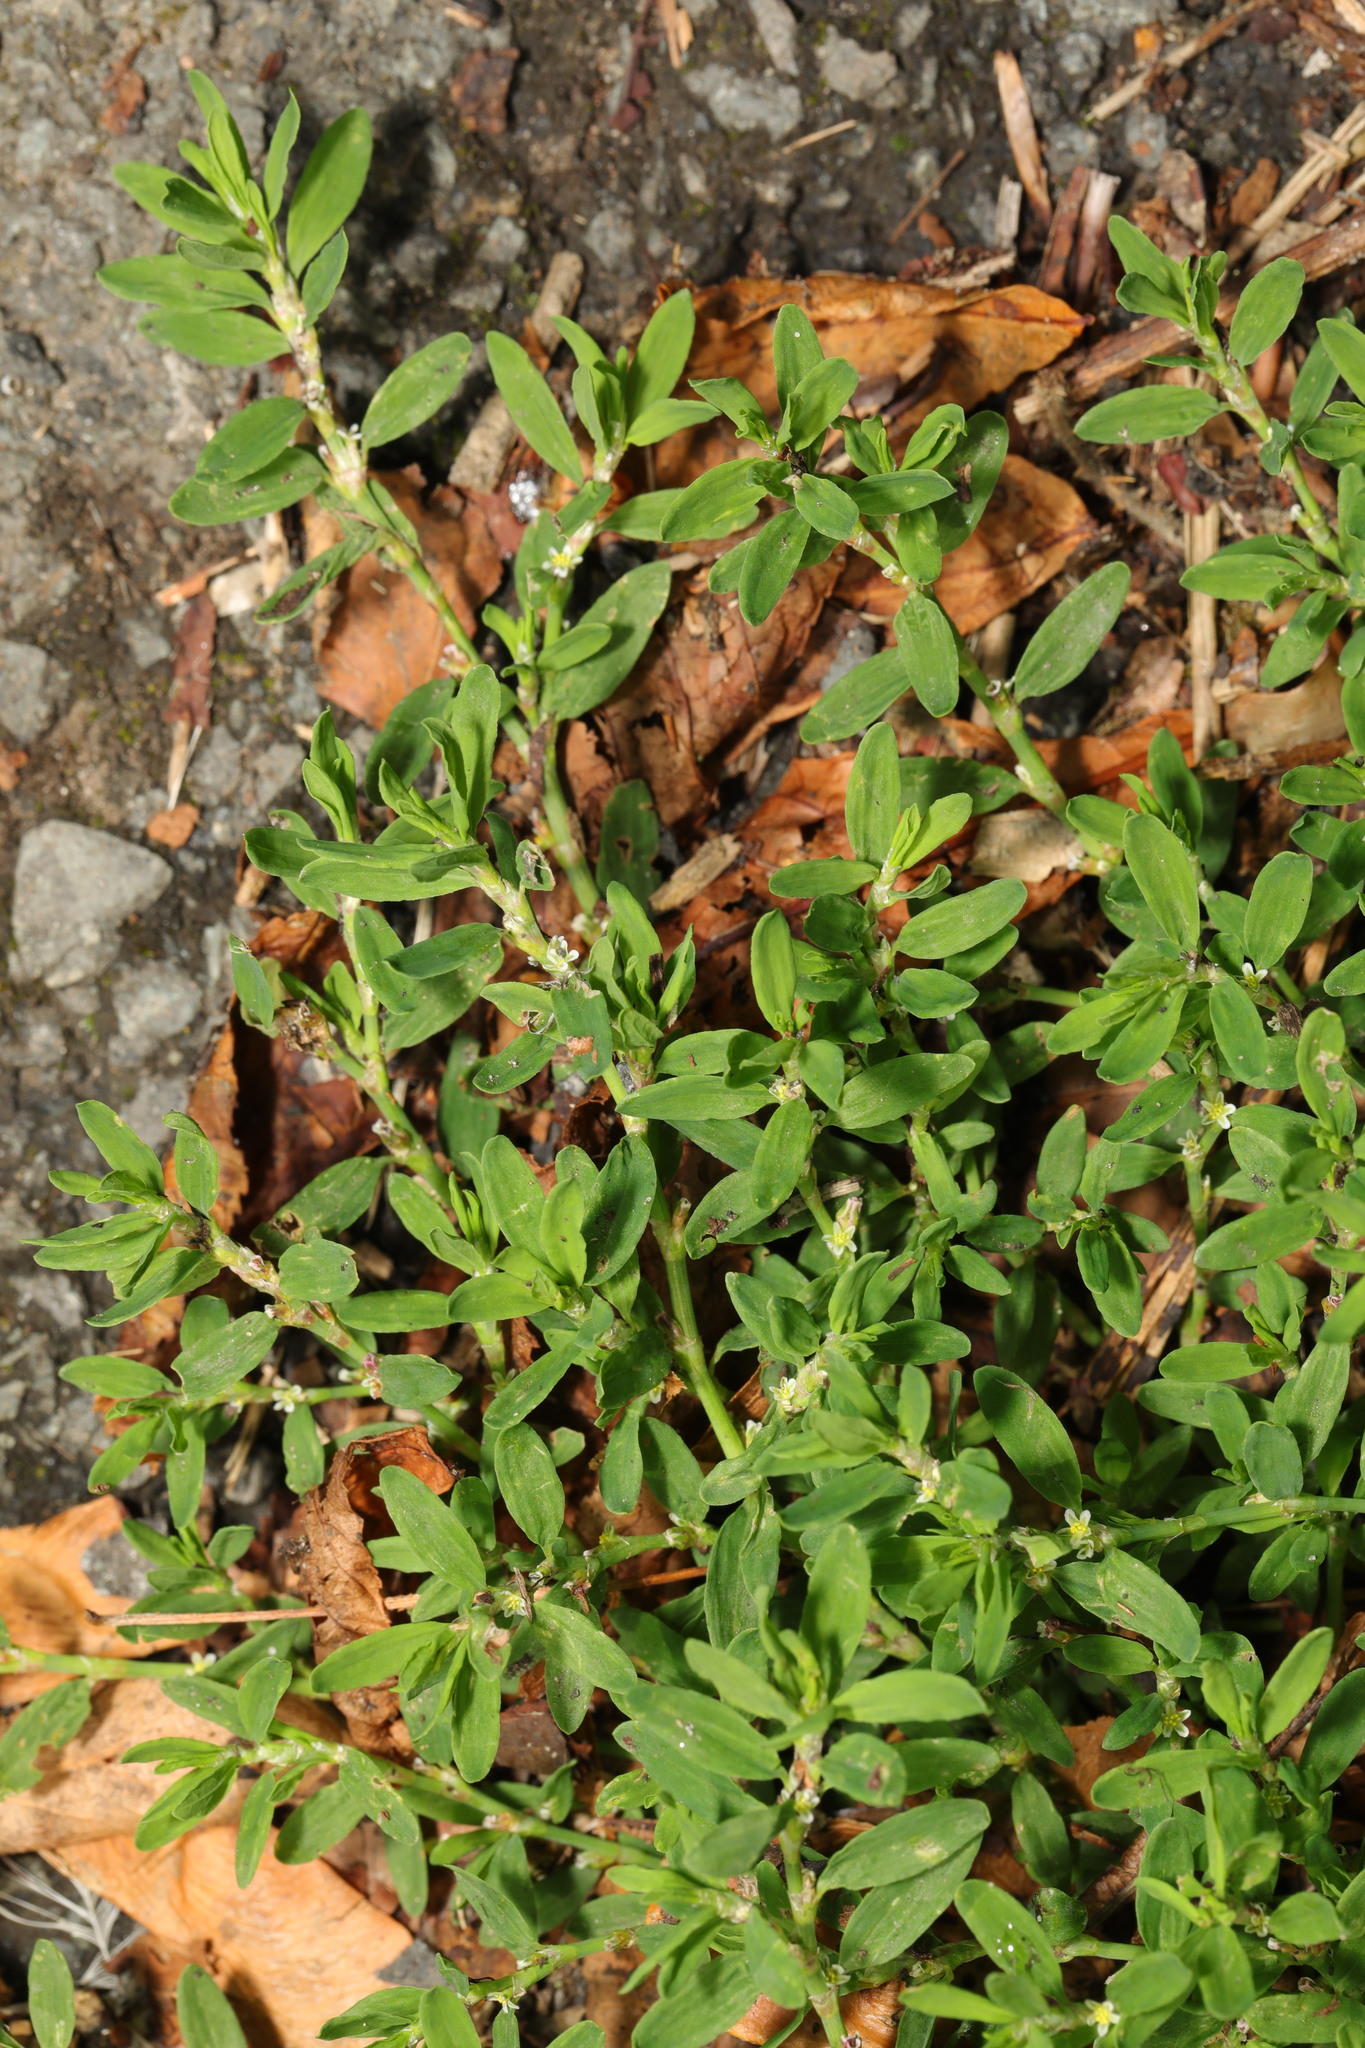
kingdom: Plantae
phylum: Tracheophyta
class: Magnoliopsida
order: Caryophyllales
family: Polygonaceae
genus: Polygonum
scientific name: Polygonum aviculare
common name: Prostrate knotweed
